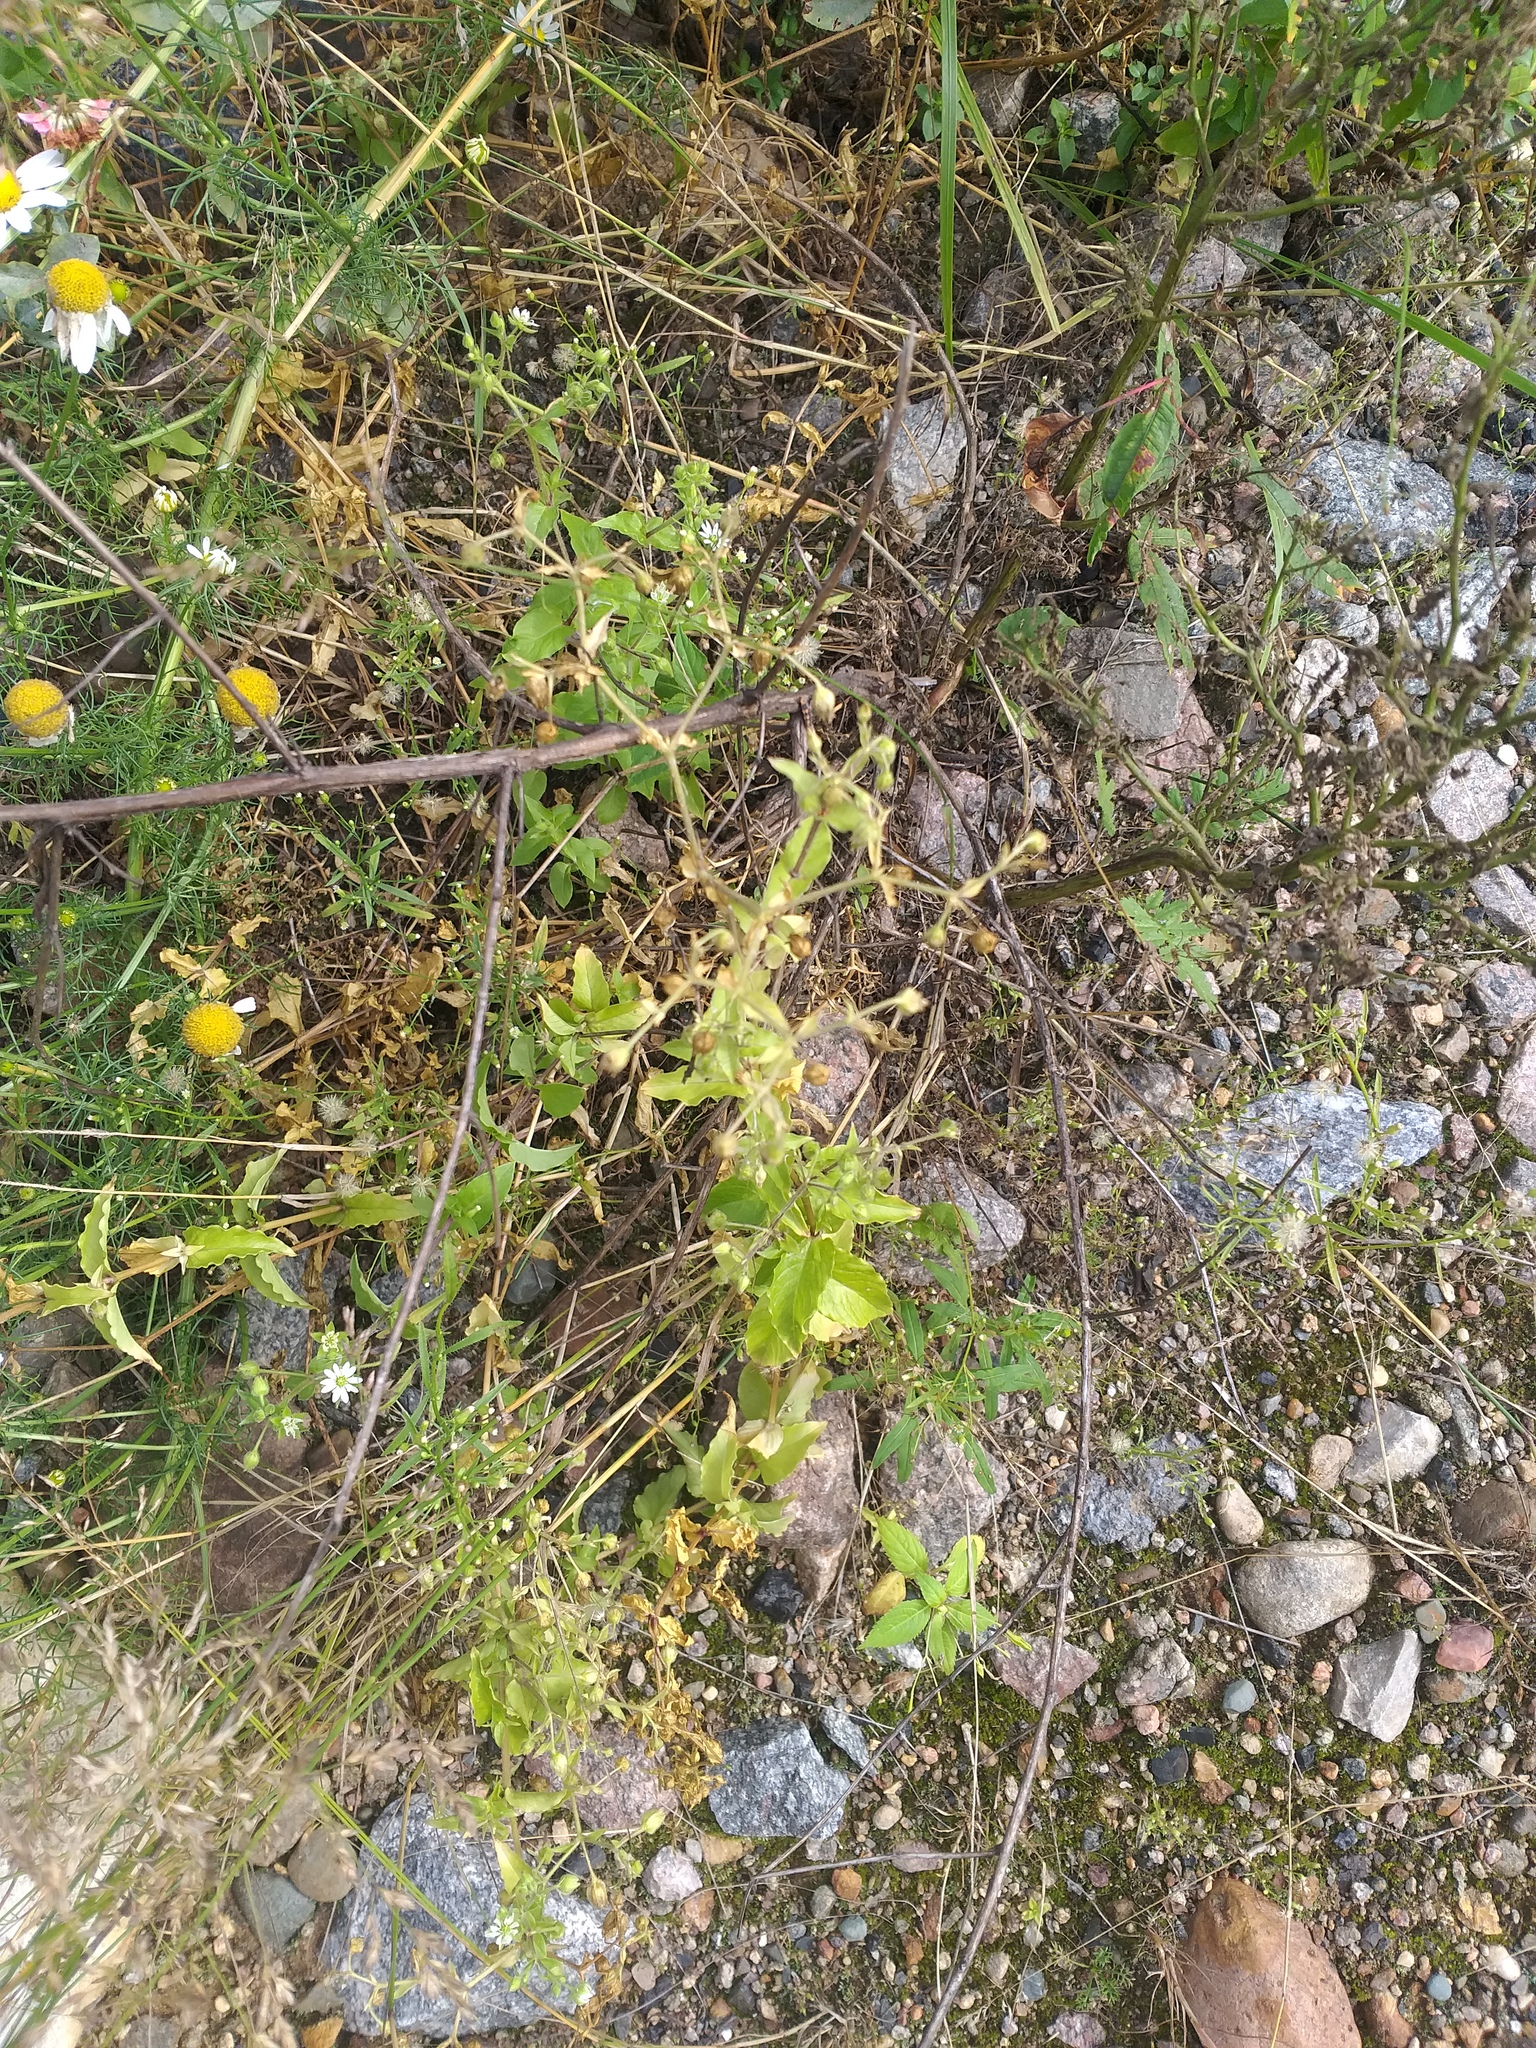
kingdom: Plantae
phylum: Tracheophyta
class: Magnoliopsida
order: Caryophyllales
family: Caryophyllaceae
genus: Stellaria
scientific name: Stellaria aquatica
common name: Water chickweed
